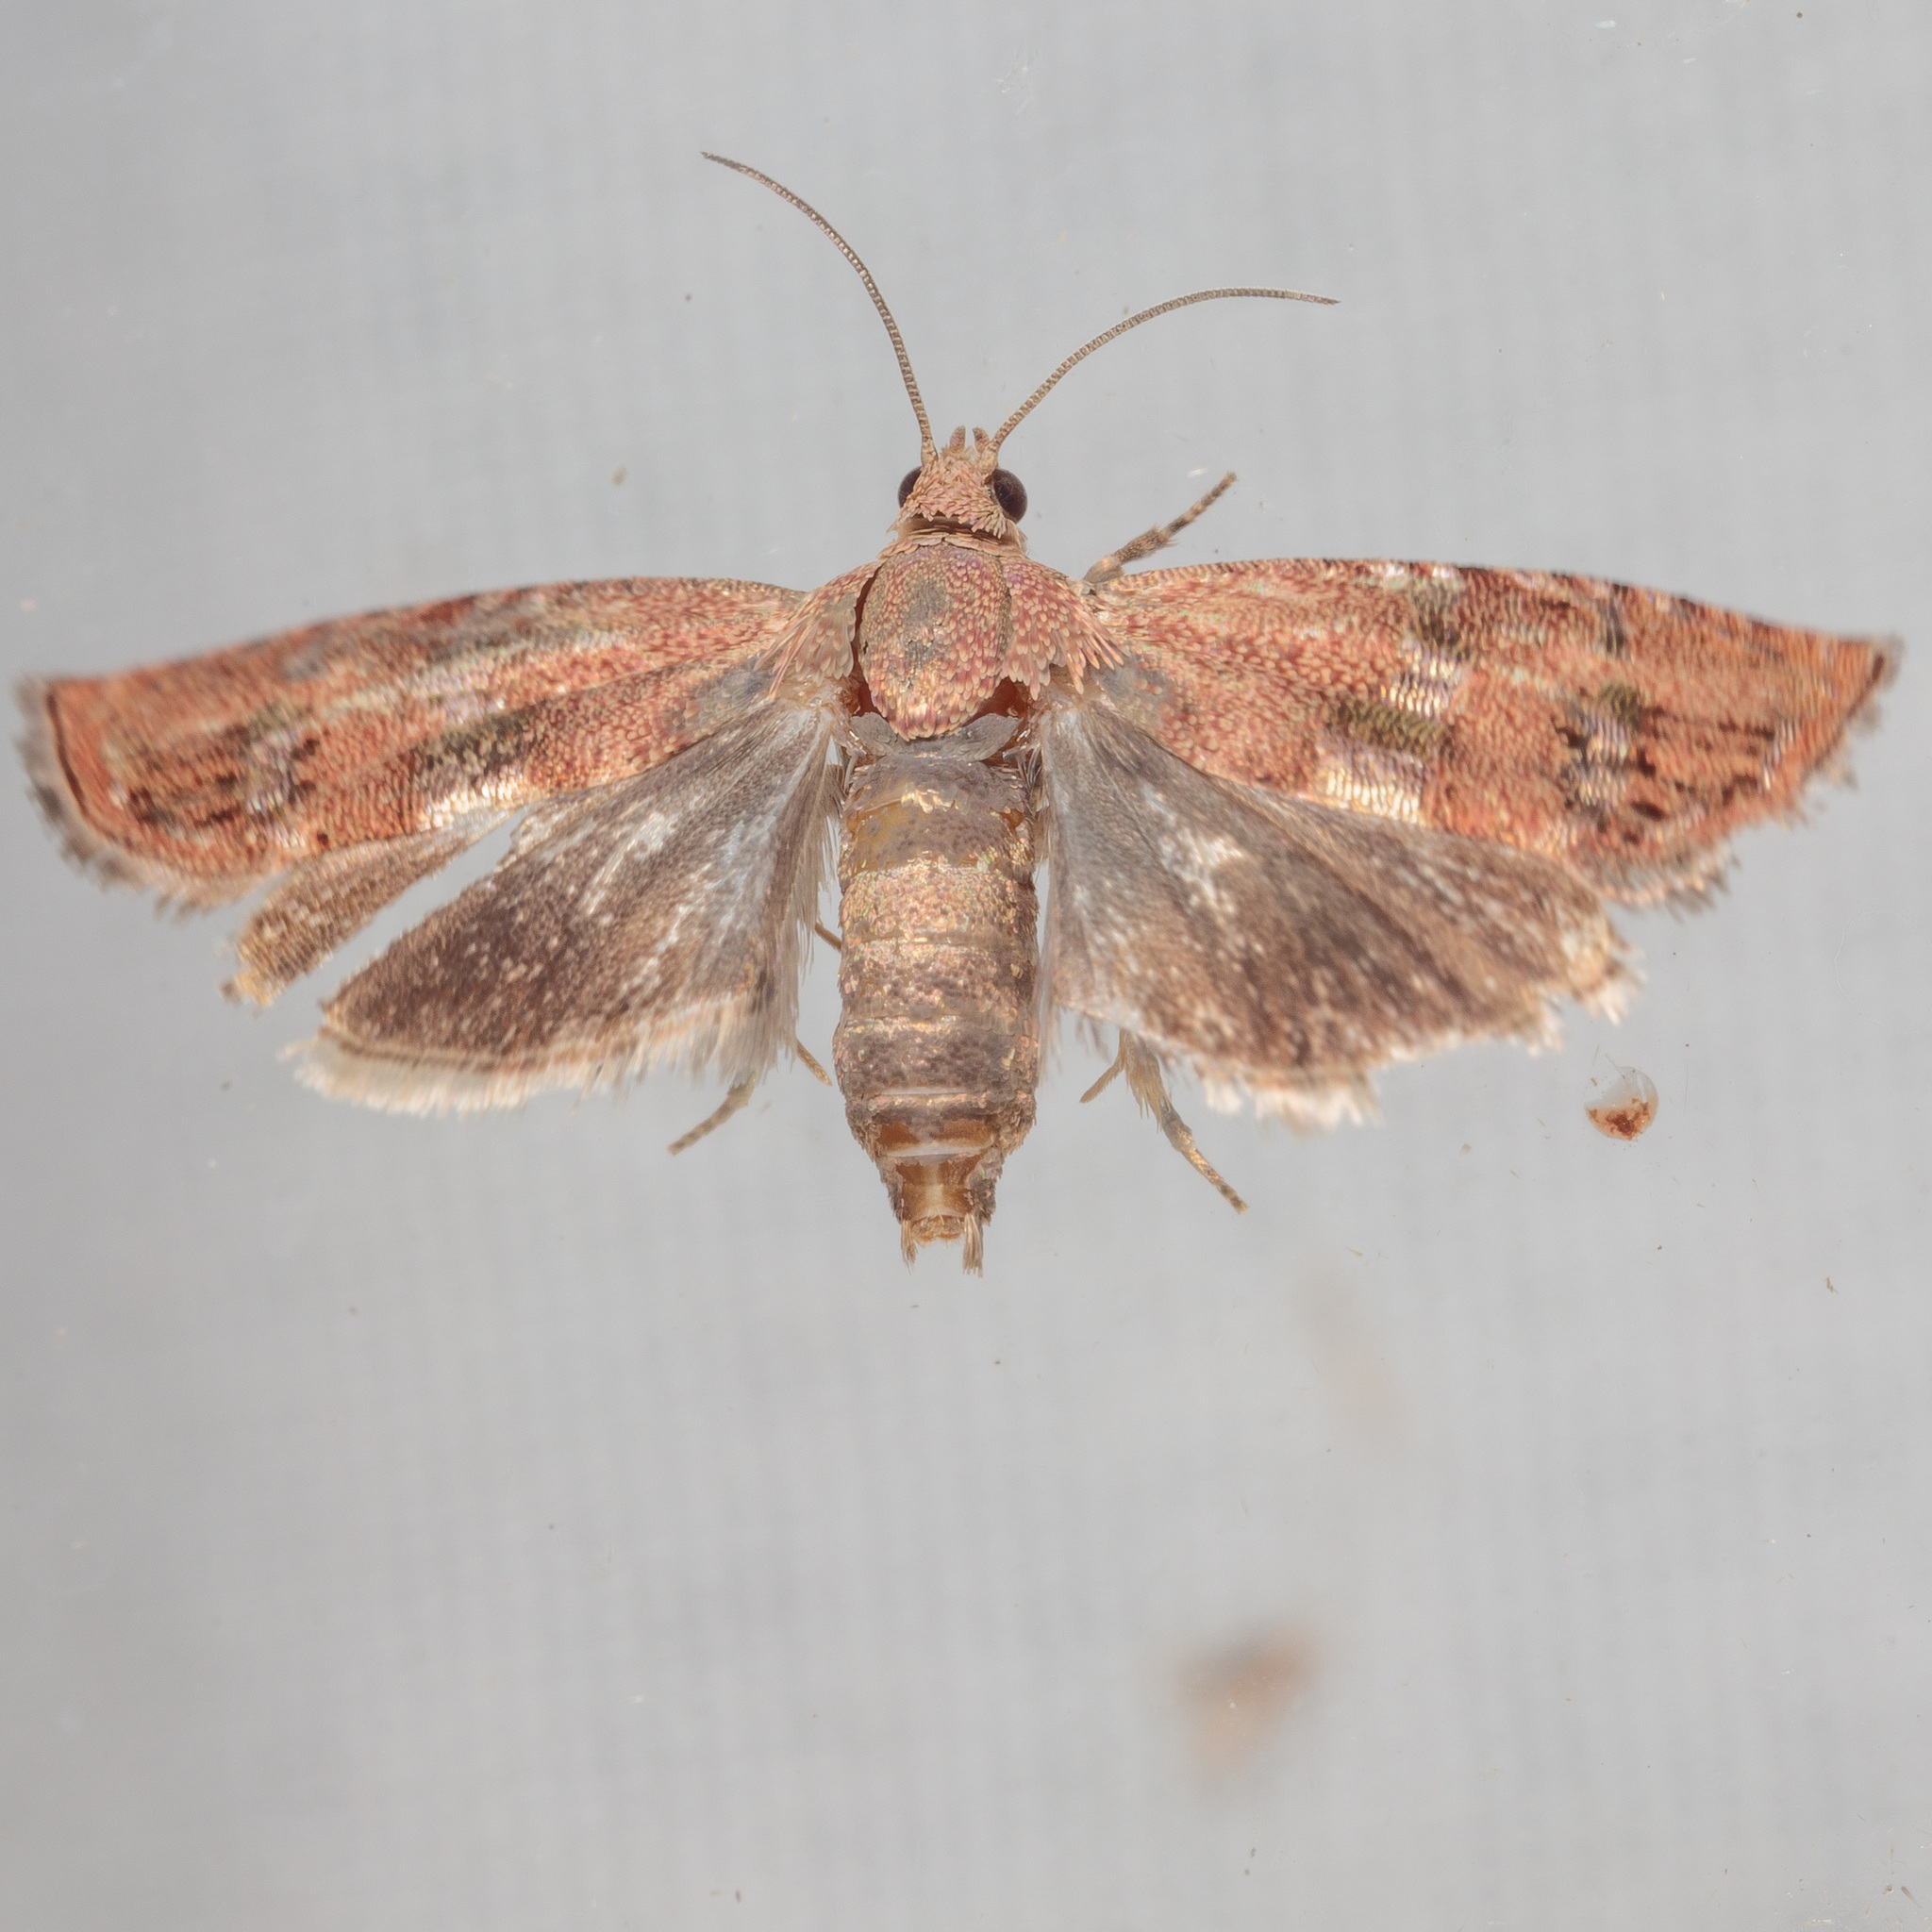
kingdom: Animalia
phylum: Arthropoda
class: Insecta
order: Lepidoptera
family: Tortricidae
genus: Cydia
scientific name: Cydia latiferreana
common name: Filbertworm moth
